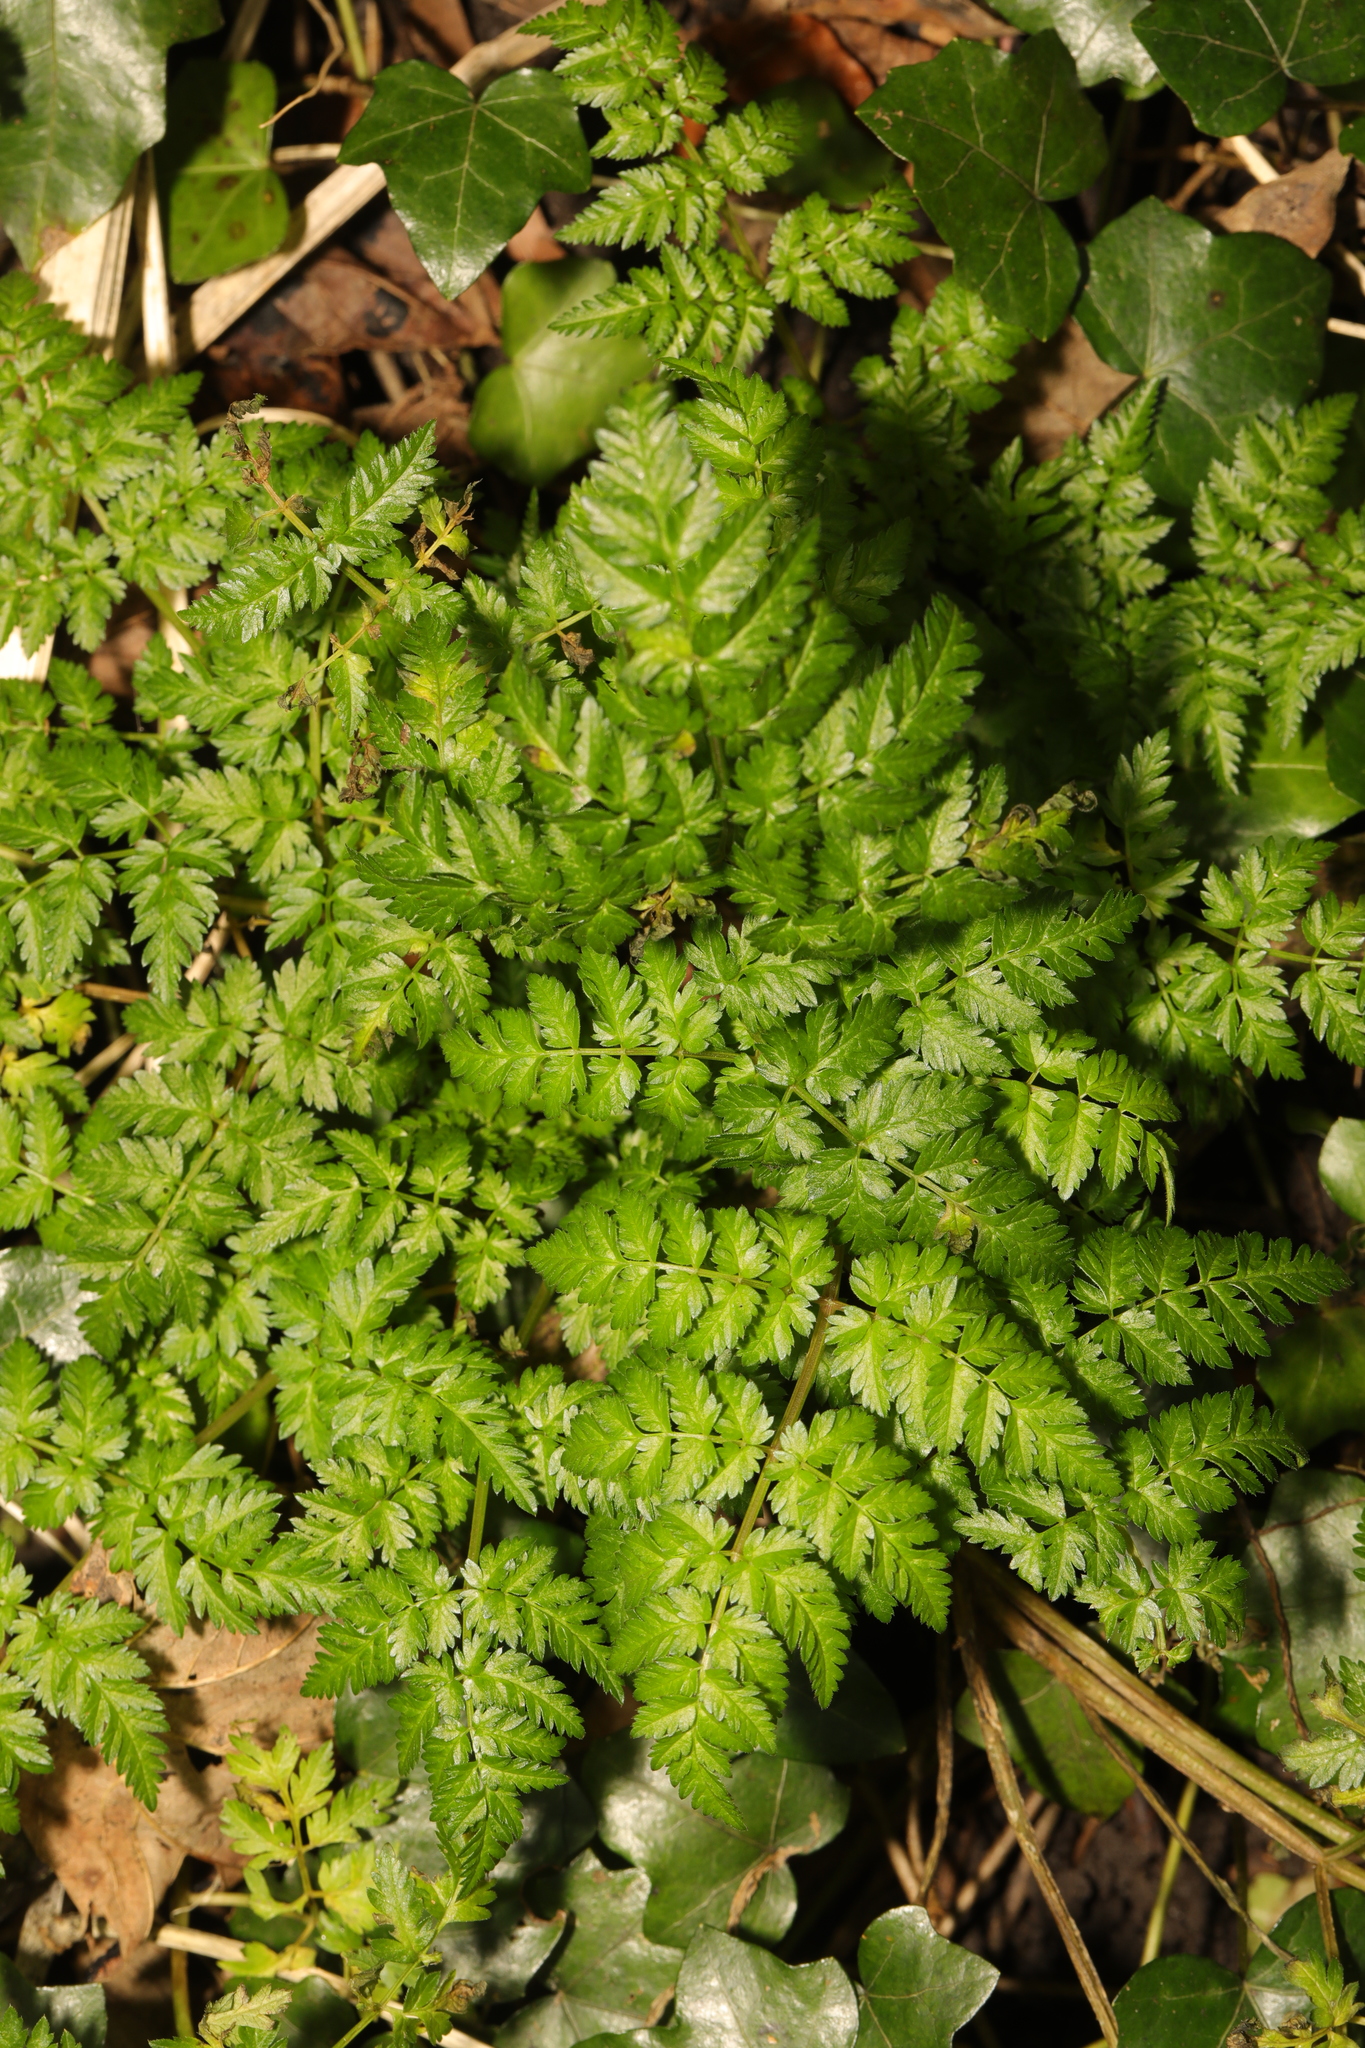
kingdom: Plantae
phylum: Tracheophyta
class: Magnoliopsida
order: Apiales
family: Apiaceae
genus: Anthriscus
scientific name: Anthriscus sylvestris
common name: Cow parsley
